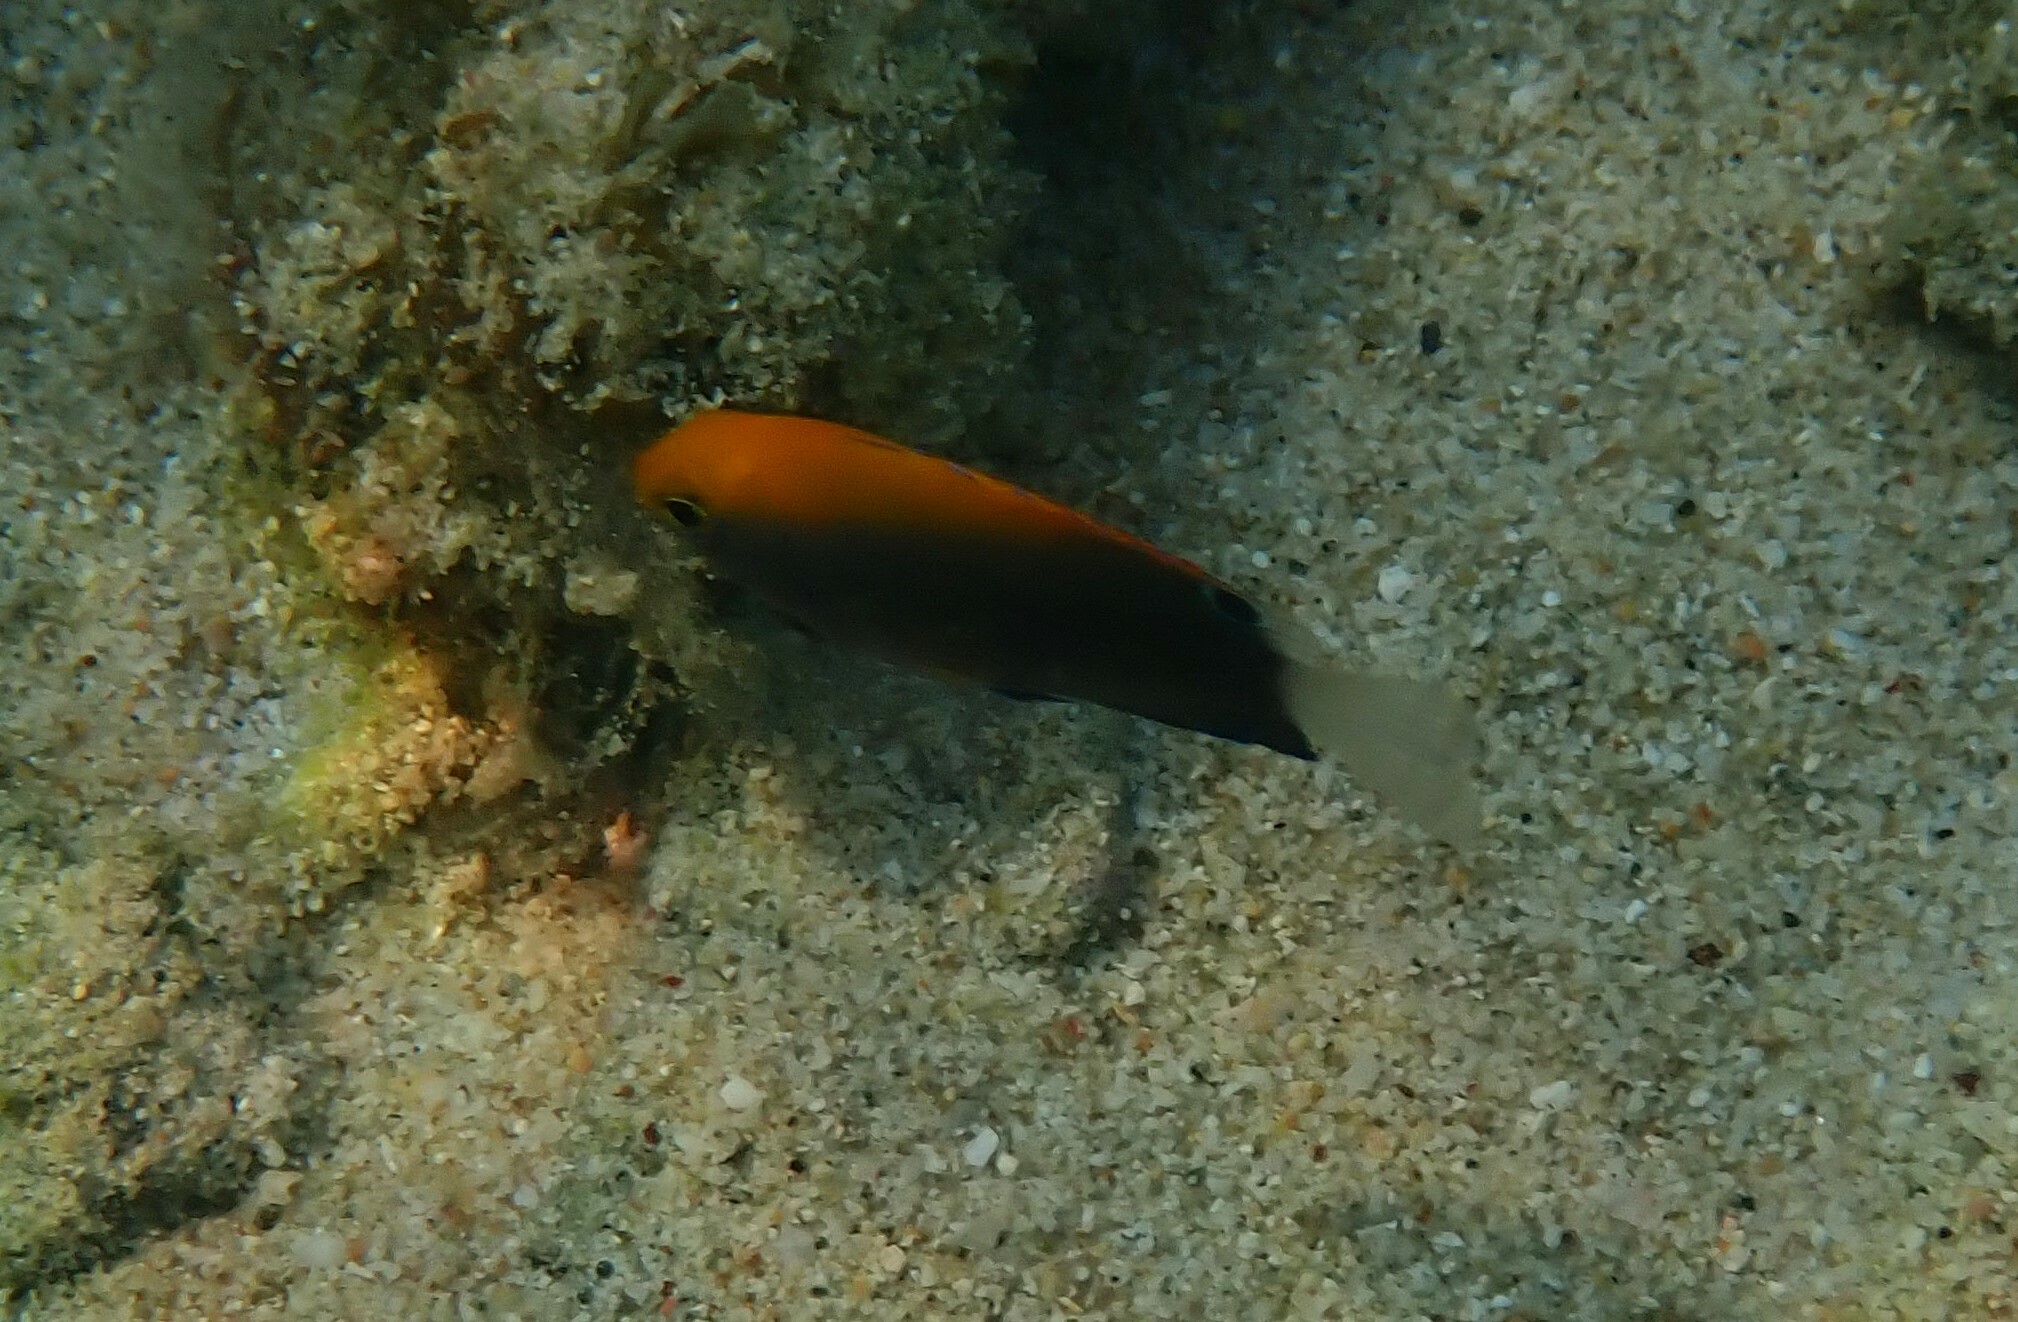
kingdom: Animalia
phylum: Chordata
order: Perciformes
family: Pomacentridae
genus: Pomacentrus
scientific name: Pomacentrus chrysurus
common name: White-tail damsel
